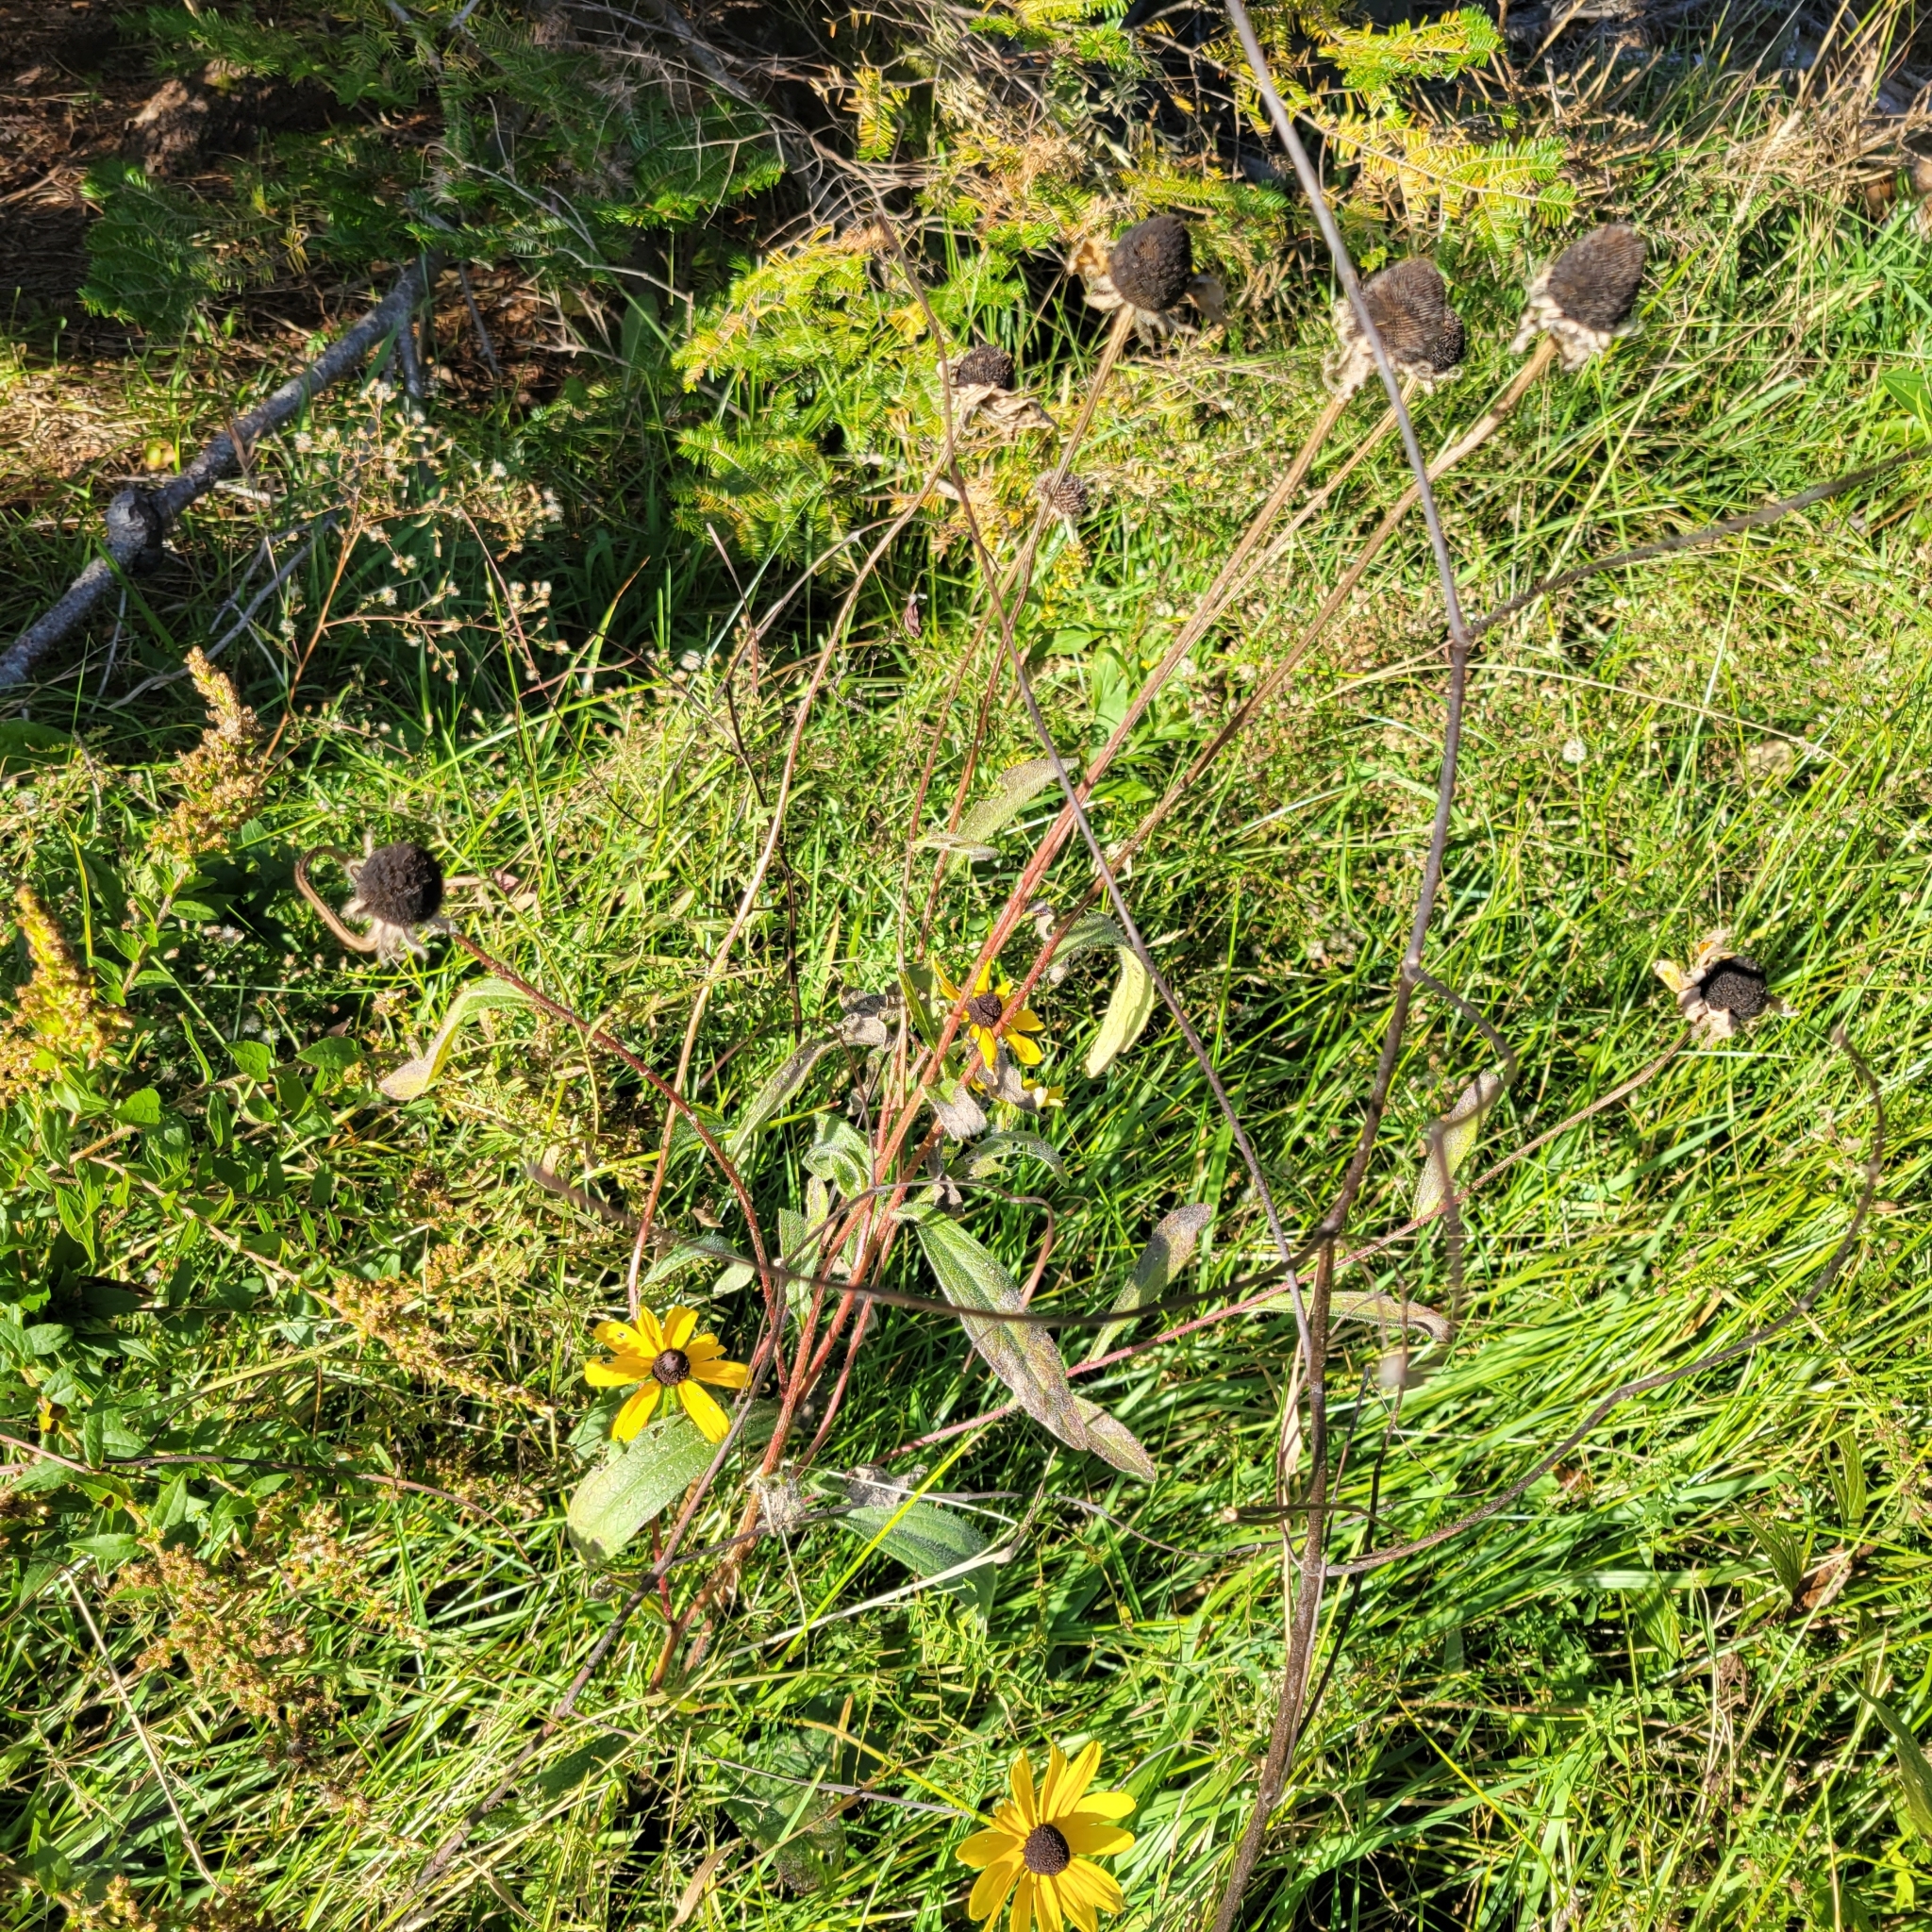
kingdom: Plantae
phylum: Tracheophyta
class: Magnoliopsida
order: Asterales
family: Asteraceae
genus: Rudbeckia
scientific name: Rudbeckia hirta
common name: Black-eyed-susan
